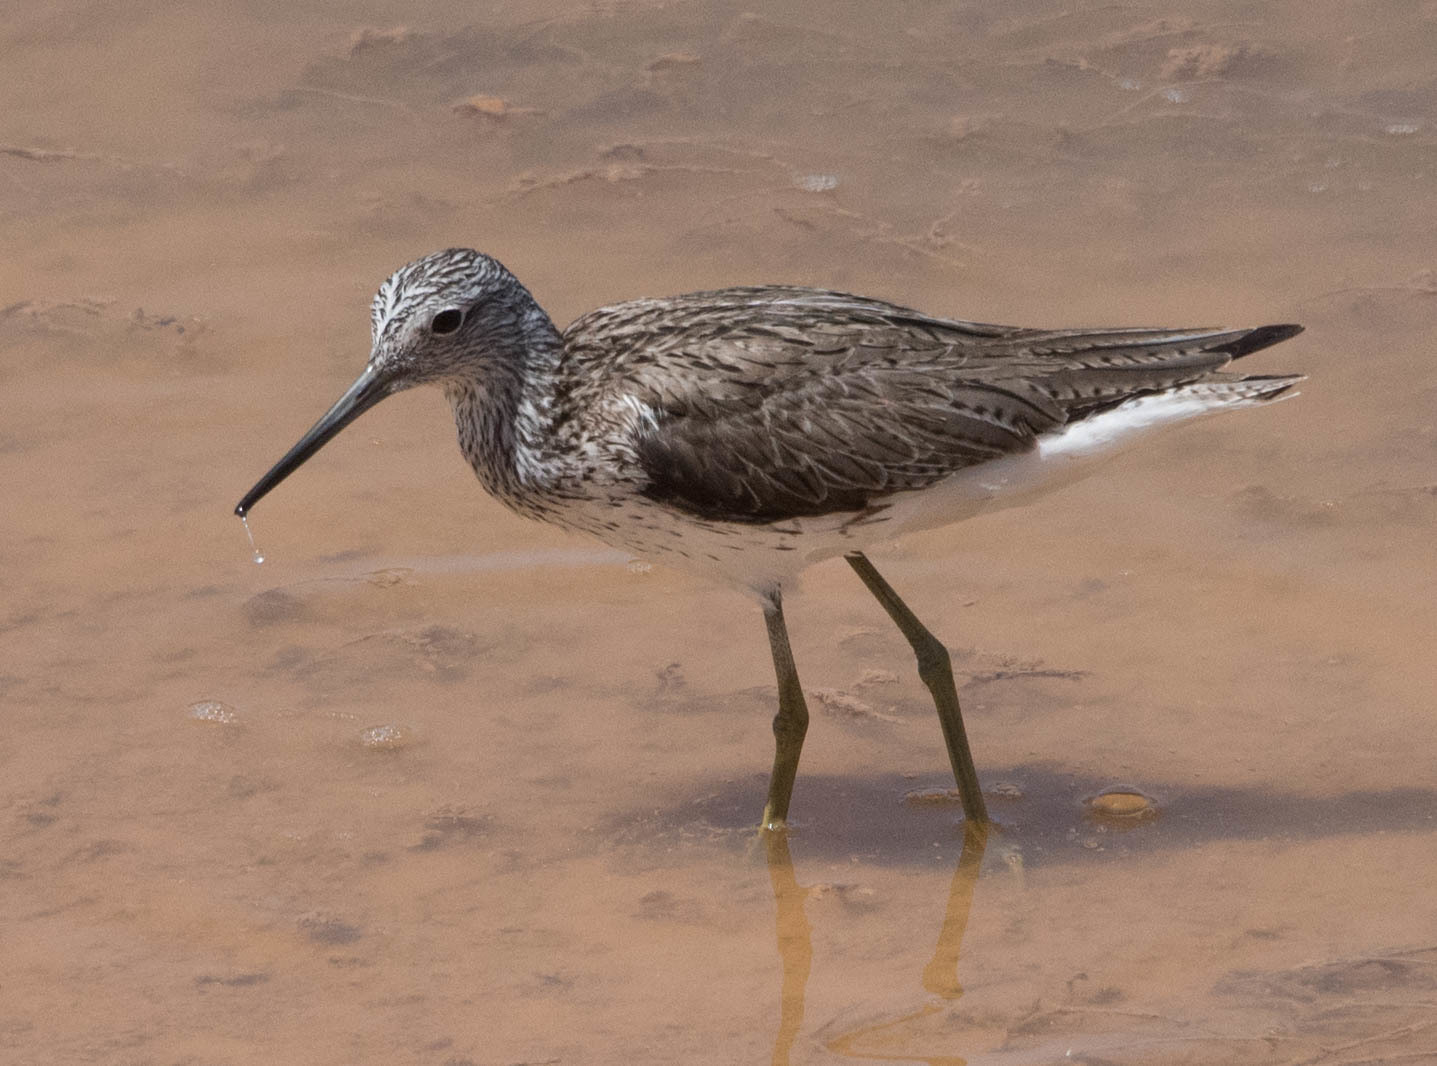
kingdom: Animalia
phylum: Chordata
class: Aves
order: Charadriiformes
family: Scolopacidae
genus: Tringa
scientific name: Tringa nebularia
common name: Common greenshank
